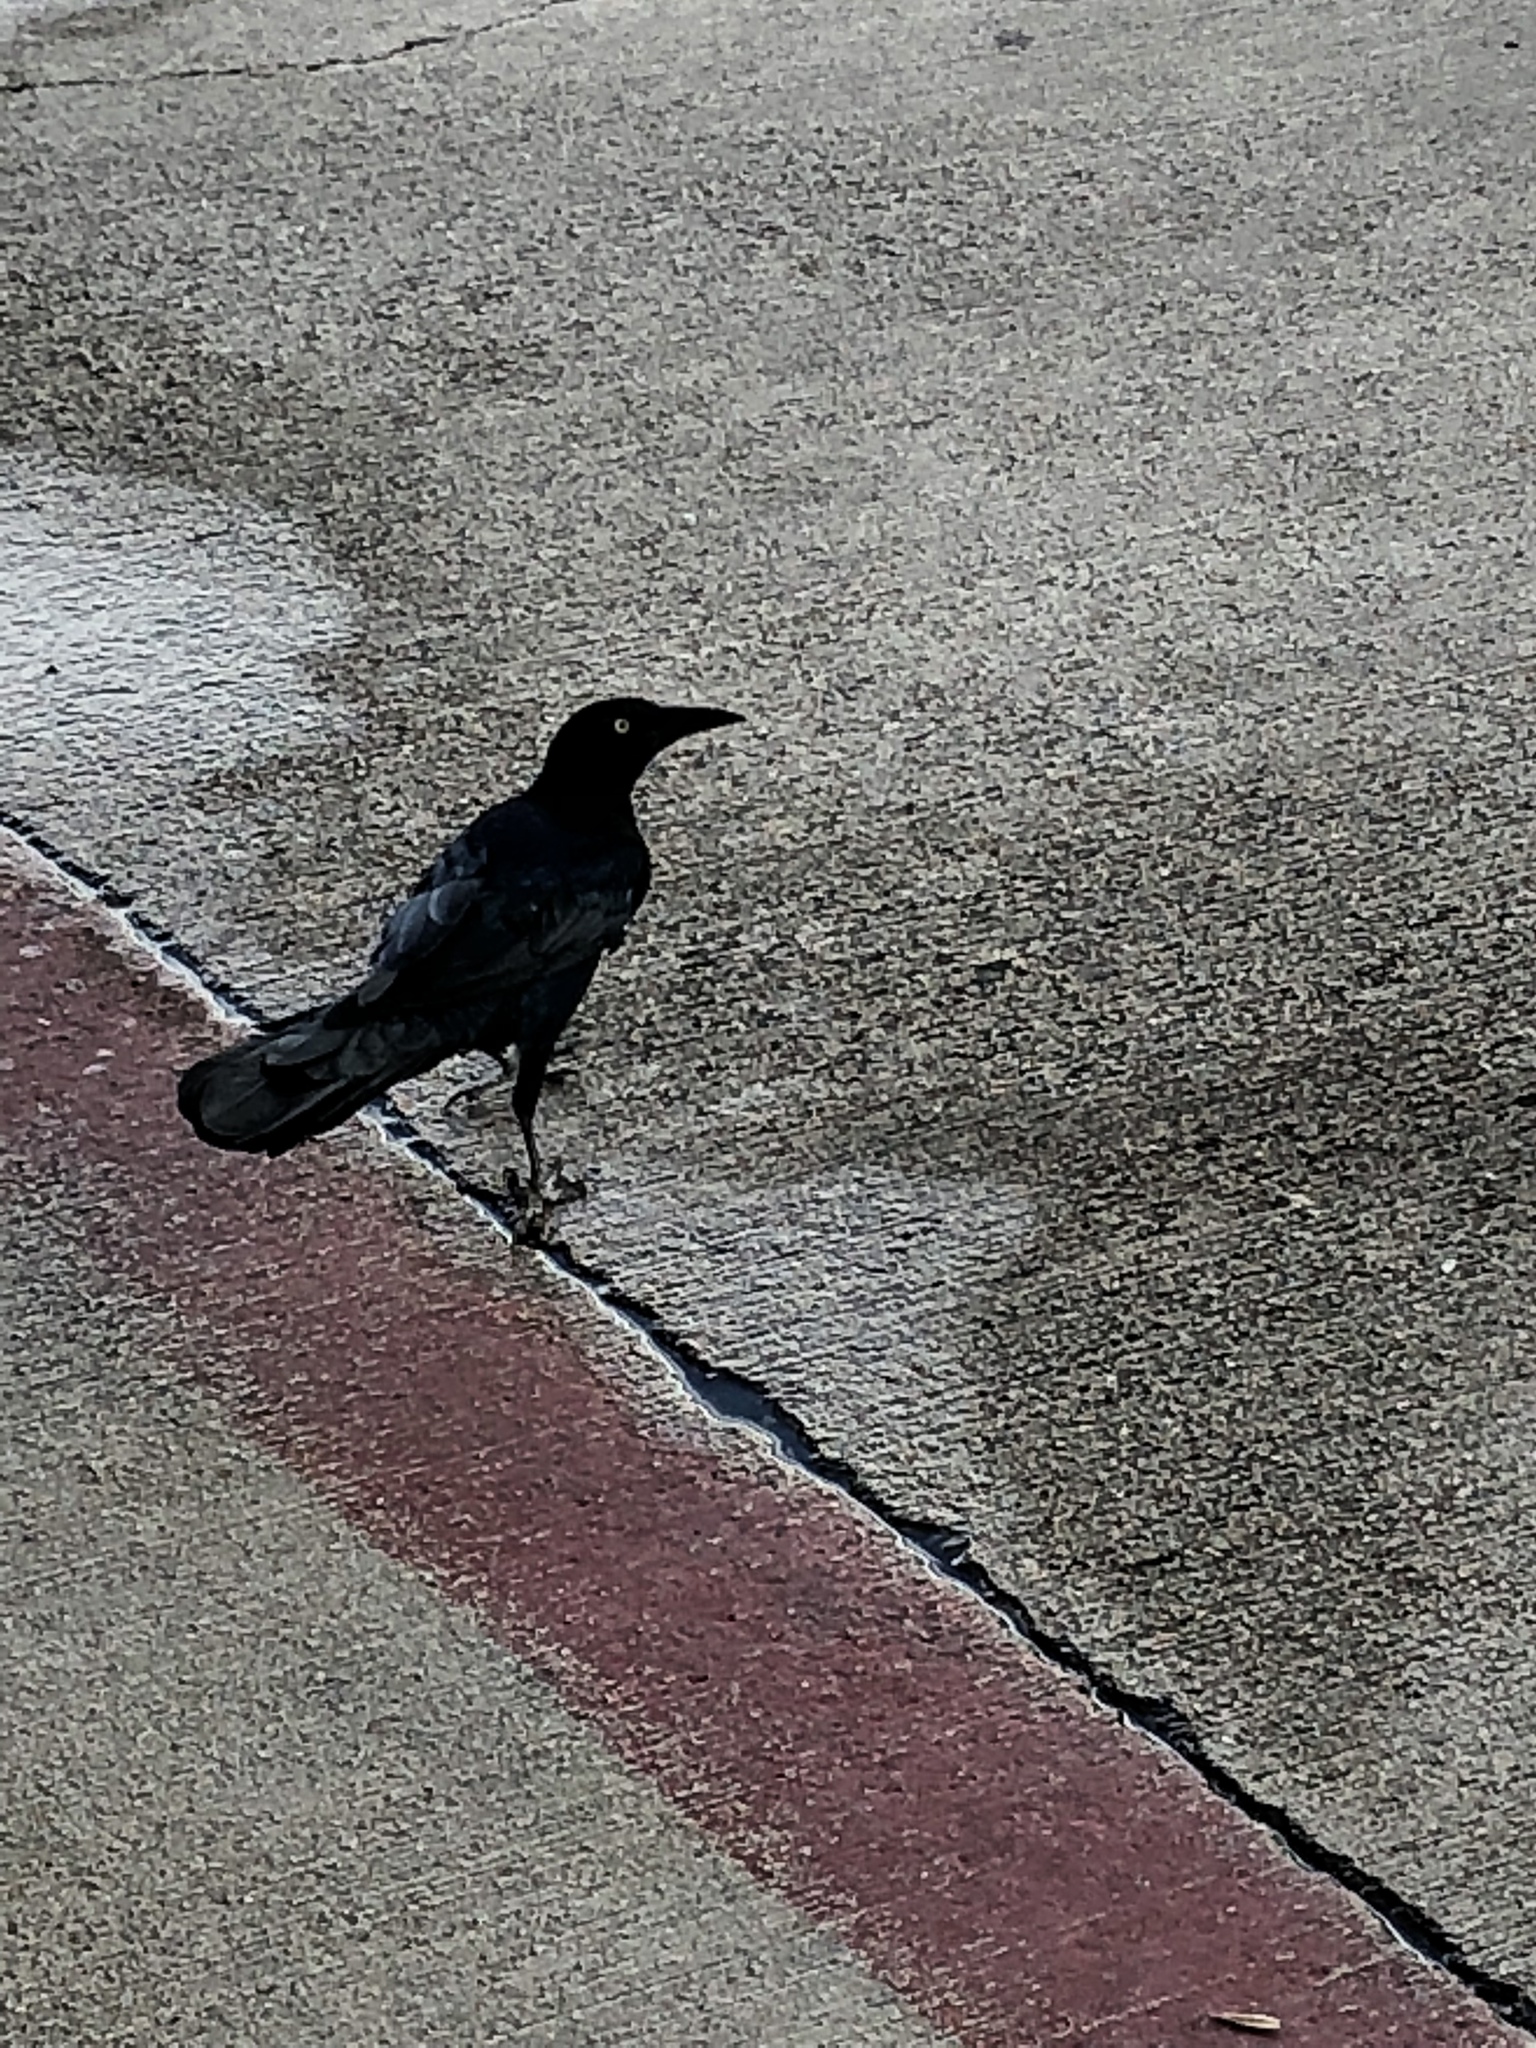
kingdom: Animalia
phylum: Chordata
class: Aves
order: Passeriformes
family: Icteridae
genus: Quiscalus
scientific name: Quiscalus mexicanus
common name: Great-tailed grackle
